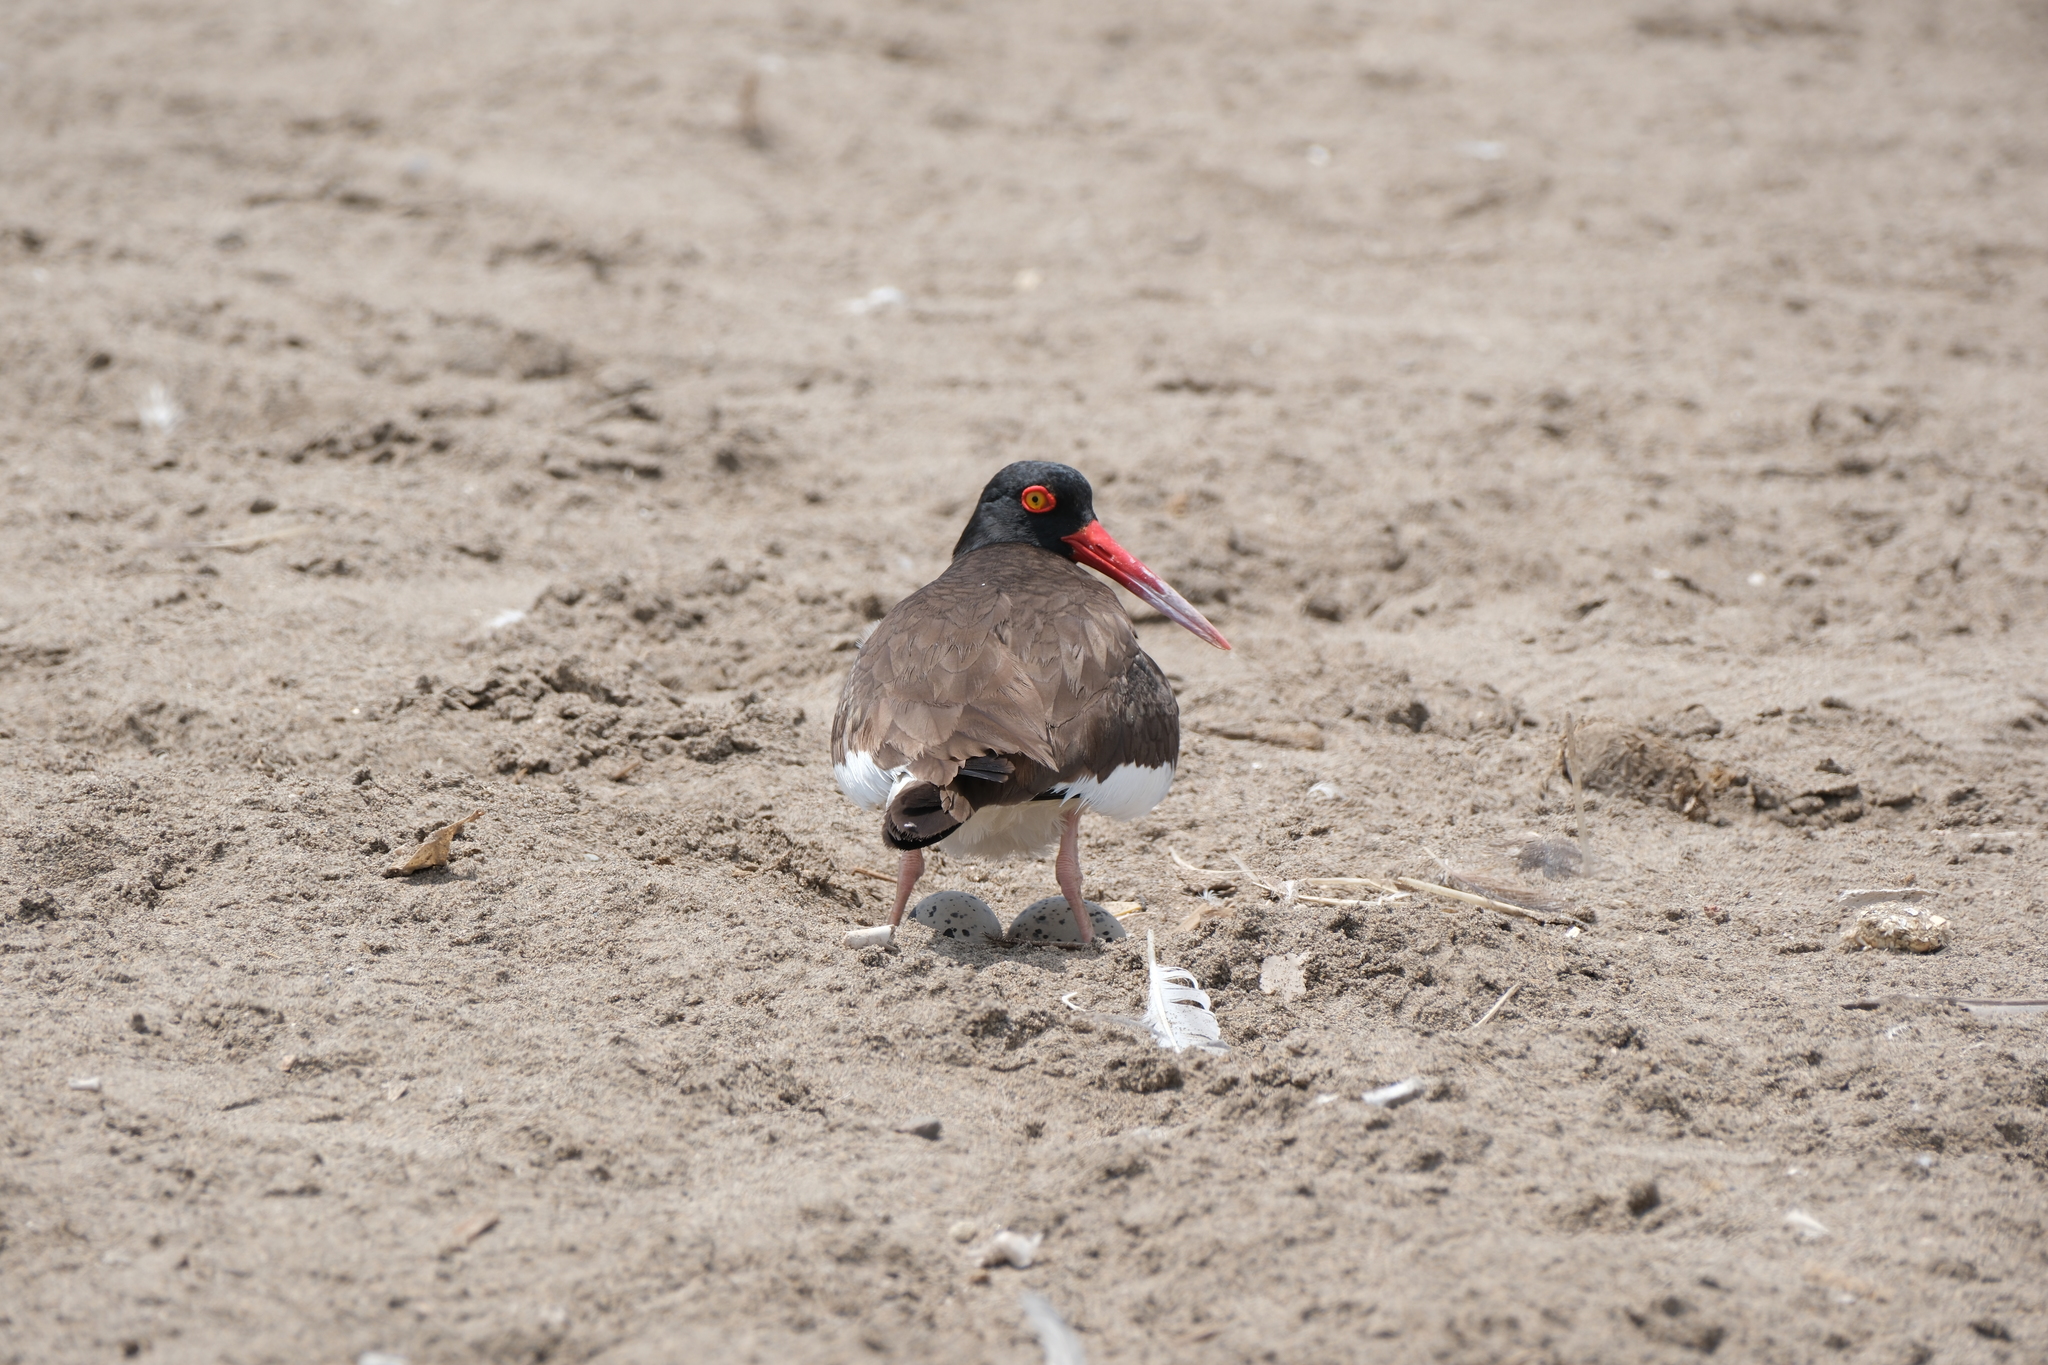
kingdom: Animalia
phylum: Chordata
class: Aves
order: Charadriiformes
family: Haematopodidae
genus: Haematopus
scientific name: Haematopus palliatus
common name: American oystercatcher
